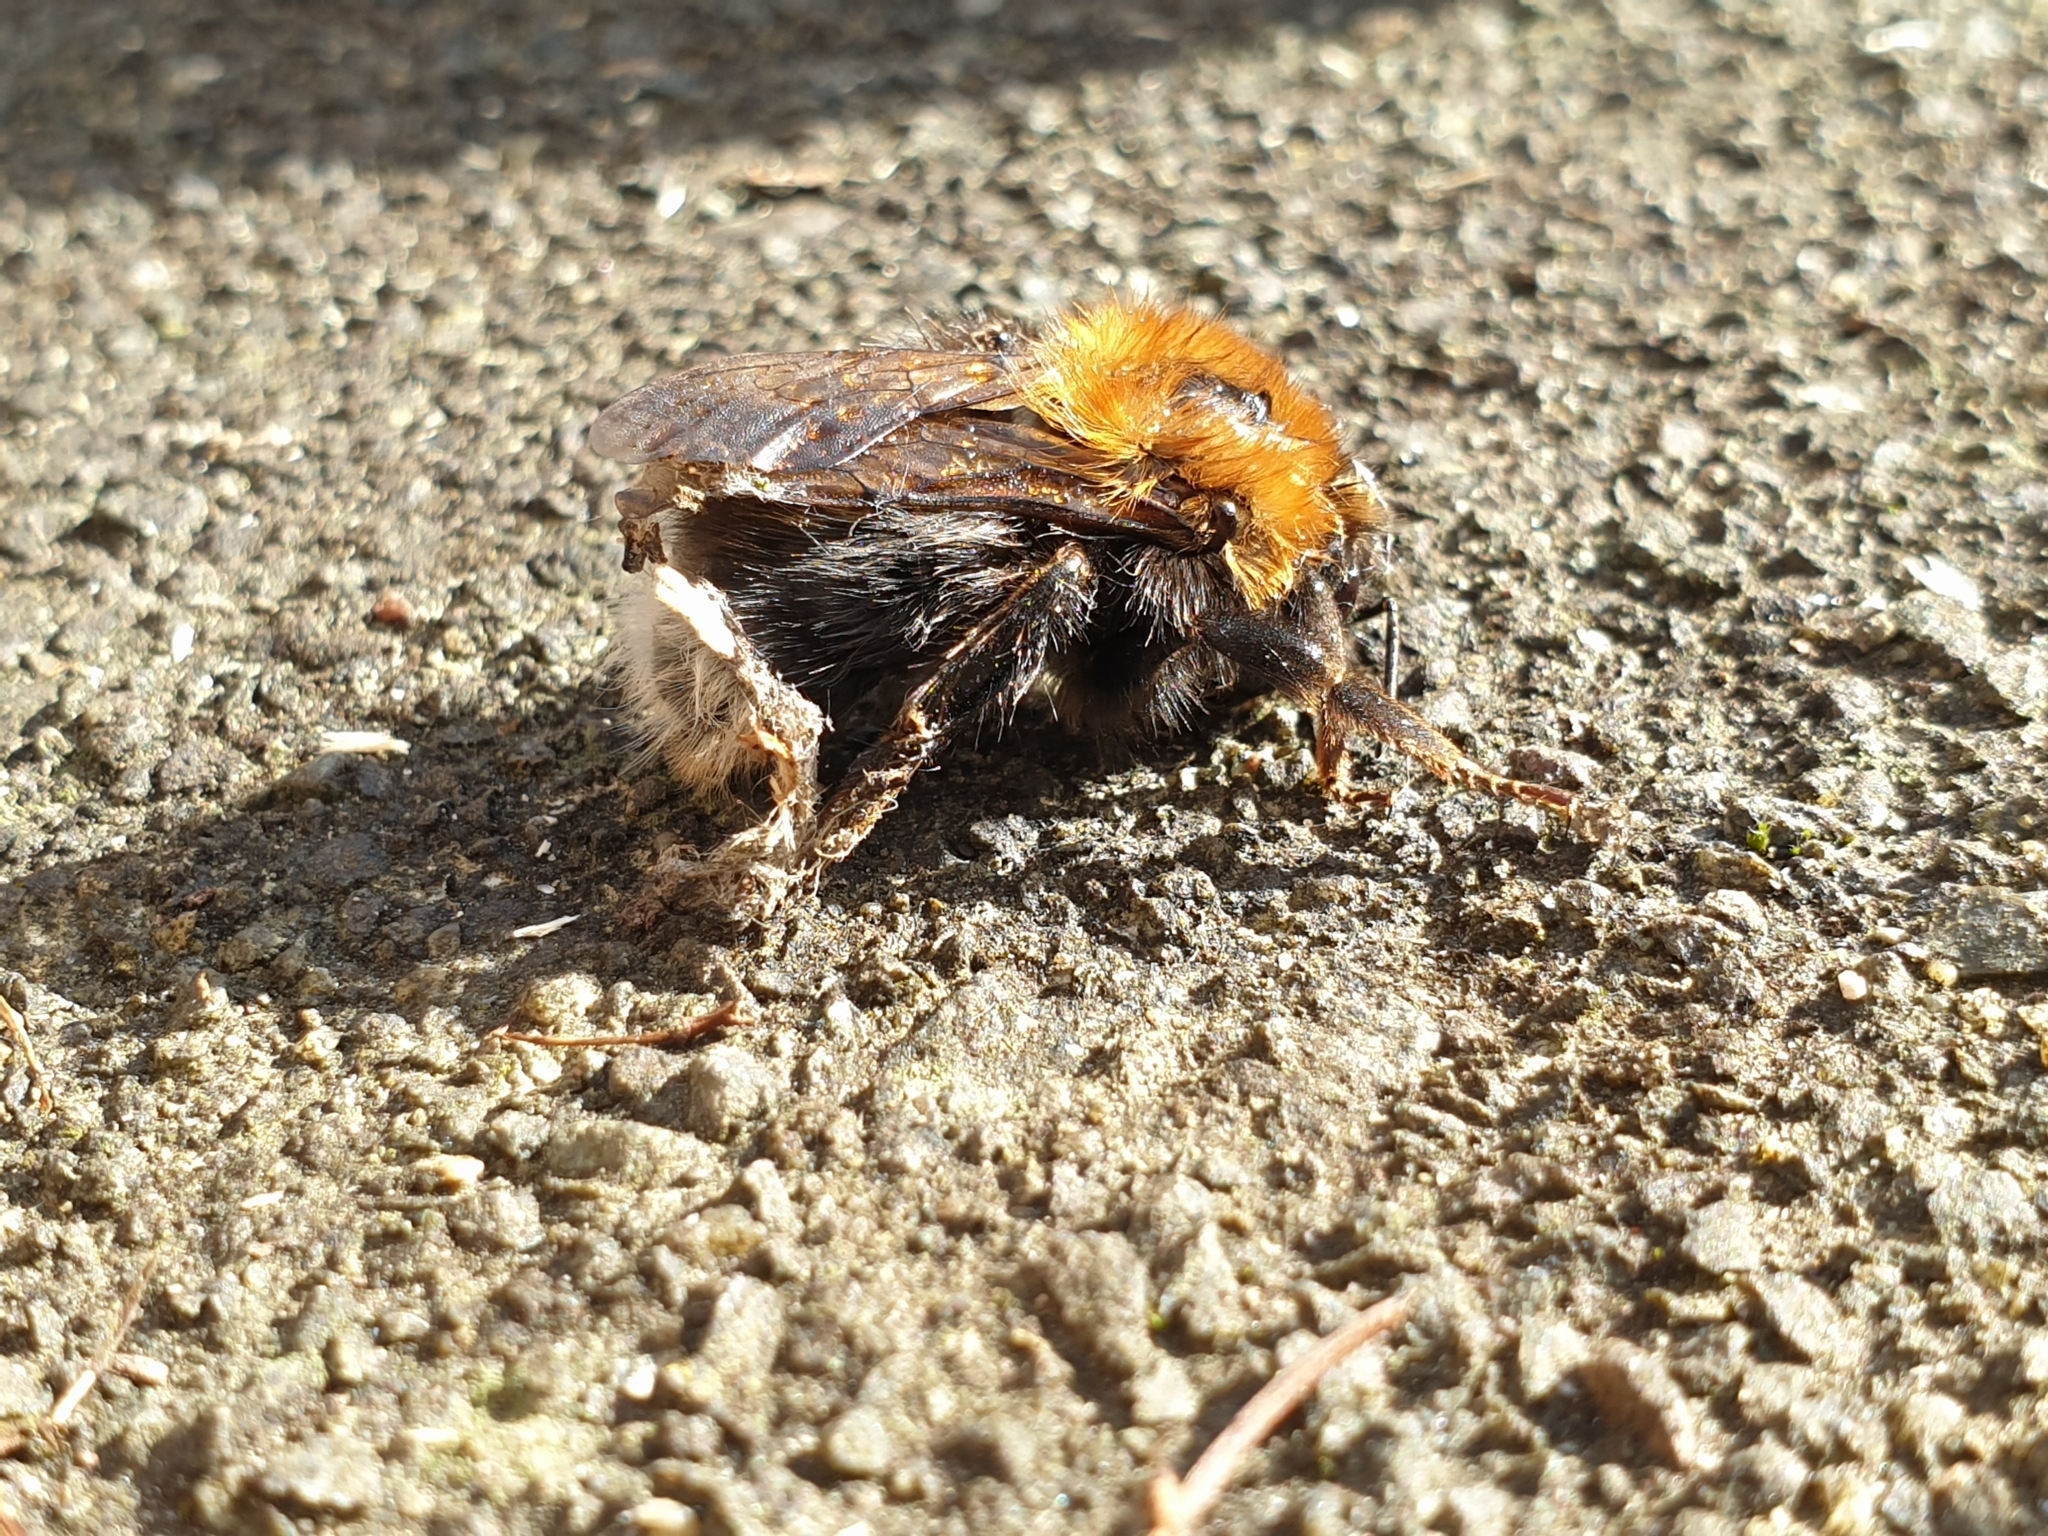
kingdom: Animalia
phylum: Arthropoda
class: Insecta
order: Hymenoptera
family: Apidae
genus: Bombus
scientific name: Bombus hypnorum
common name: New garden bumblebee
